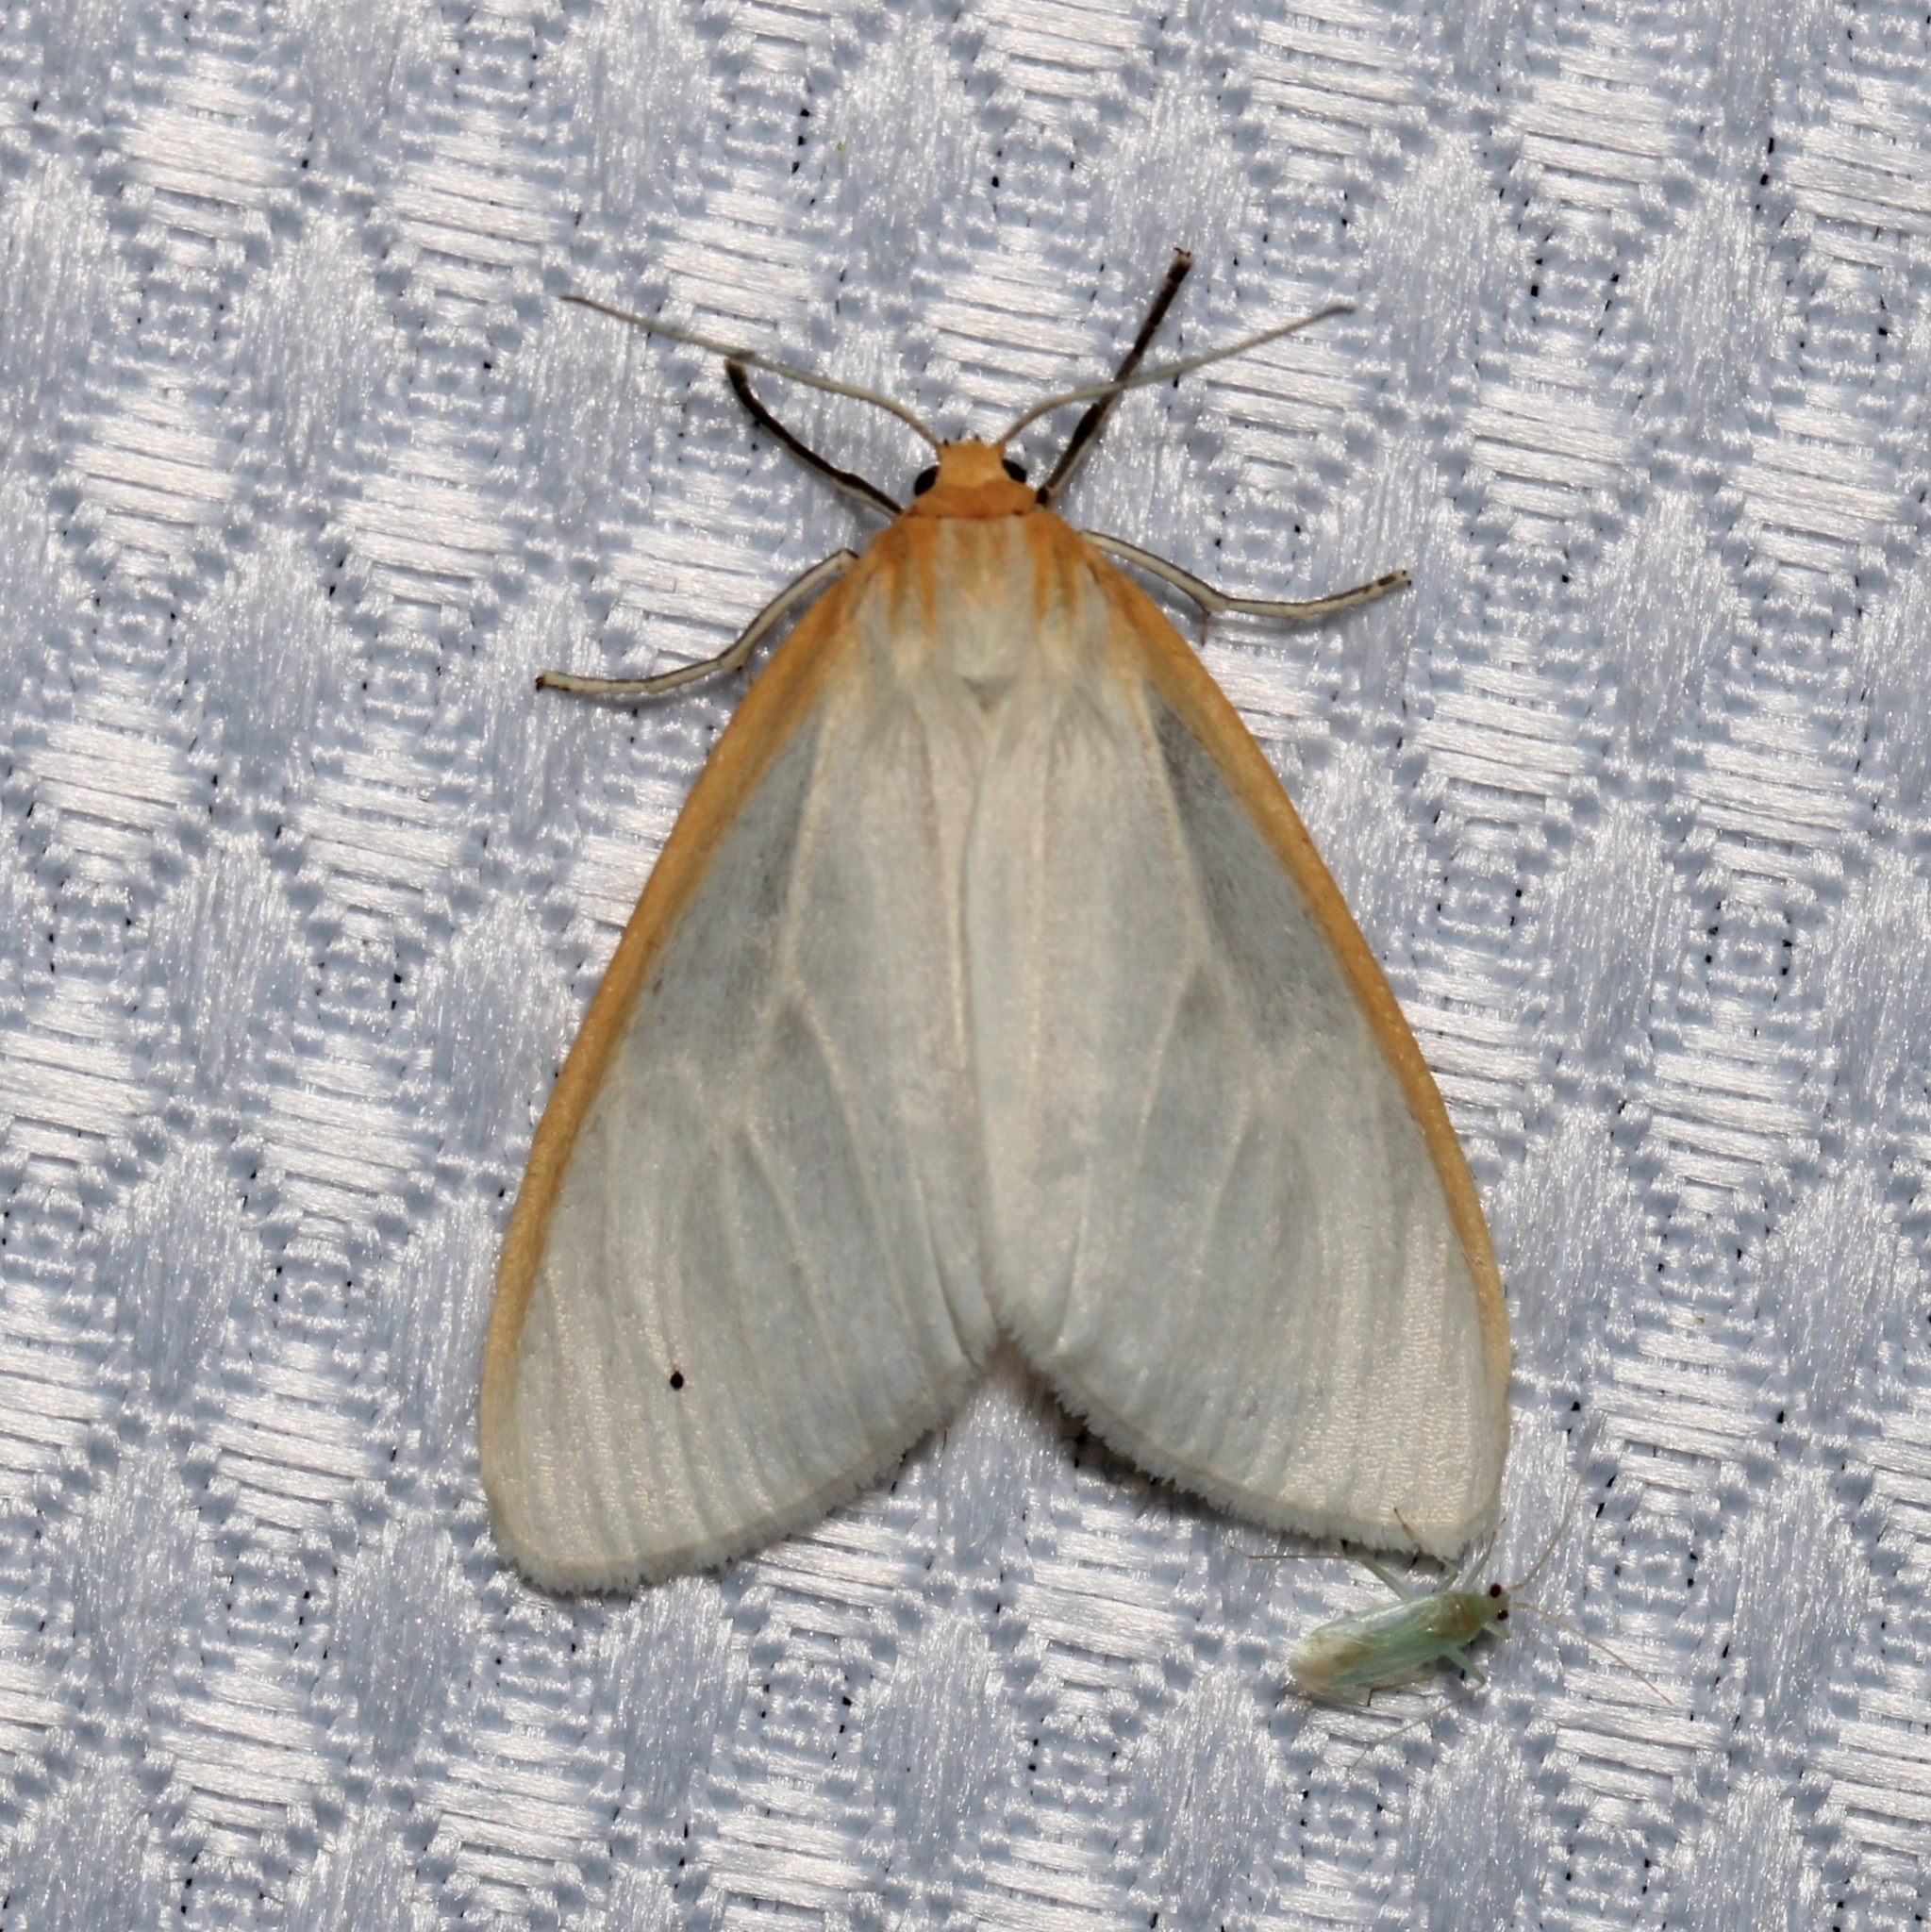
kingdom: Animalia
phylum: Arthropoda
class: Insecta
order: Lepidoptera
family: Erebidae
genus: Cycnia
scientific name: Cycnia tenera
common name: Delicate cycnia moth
